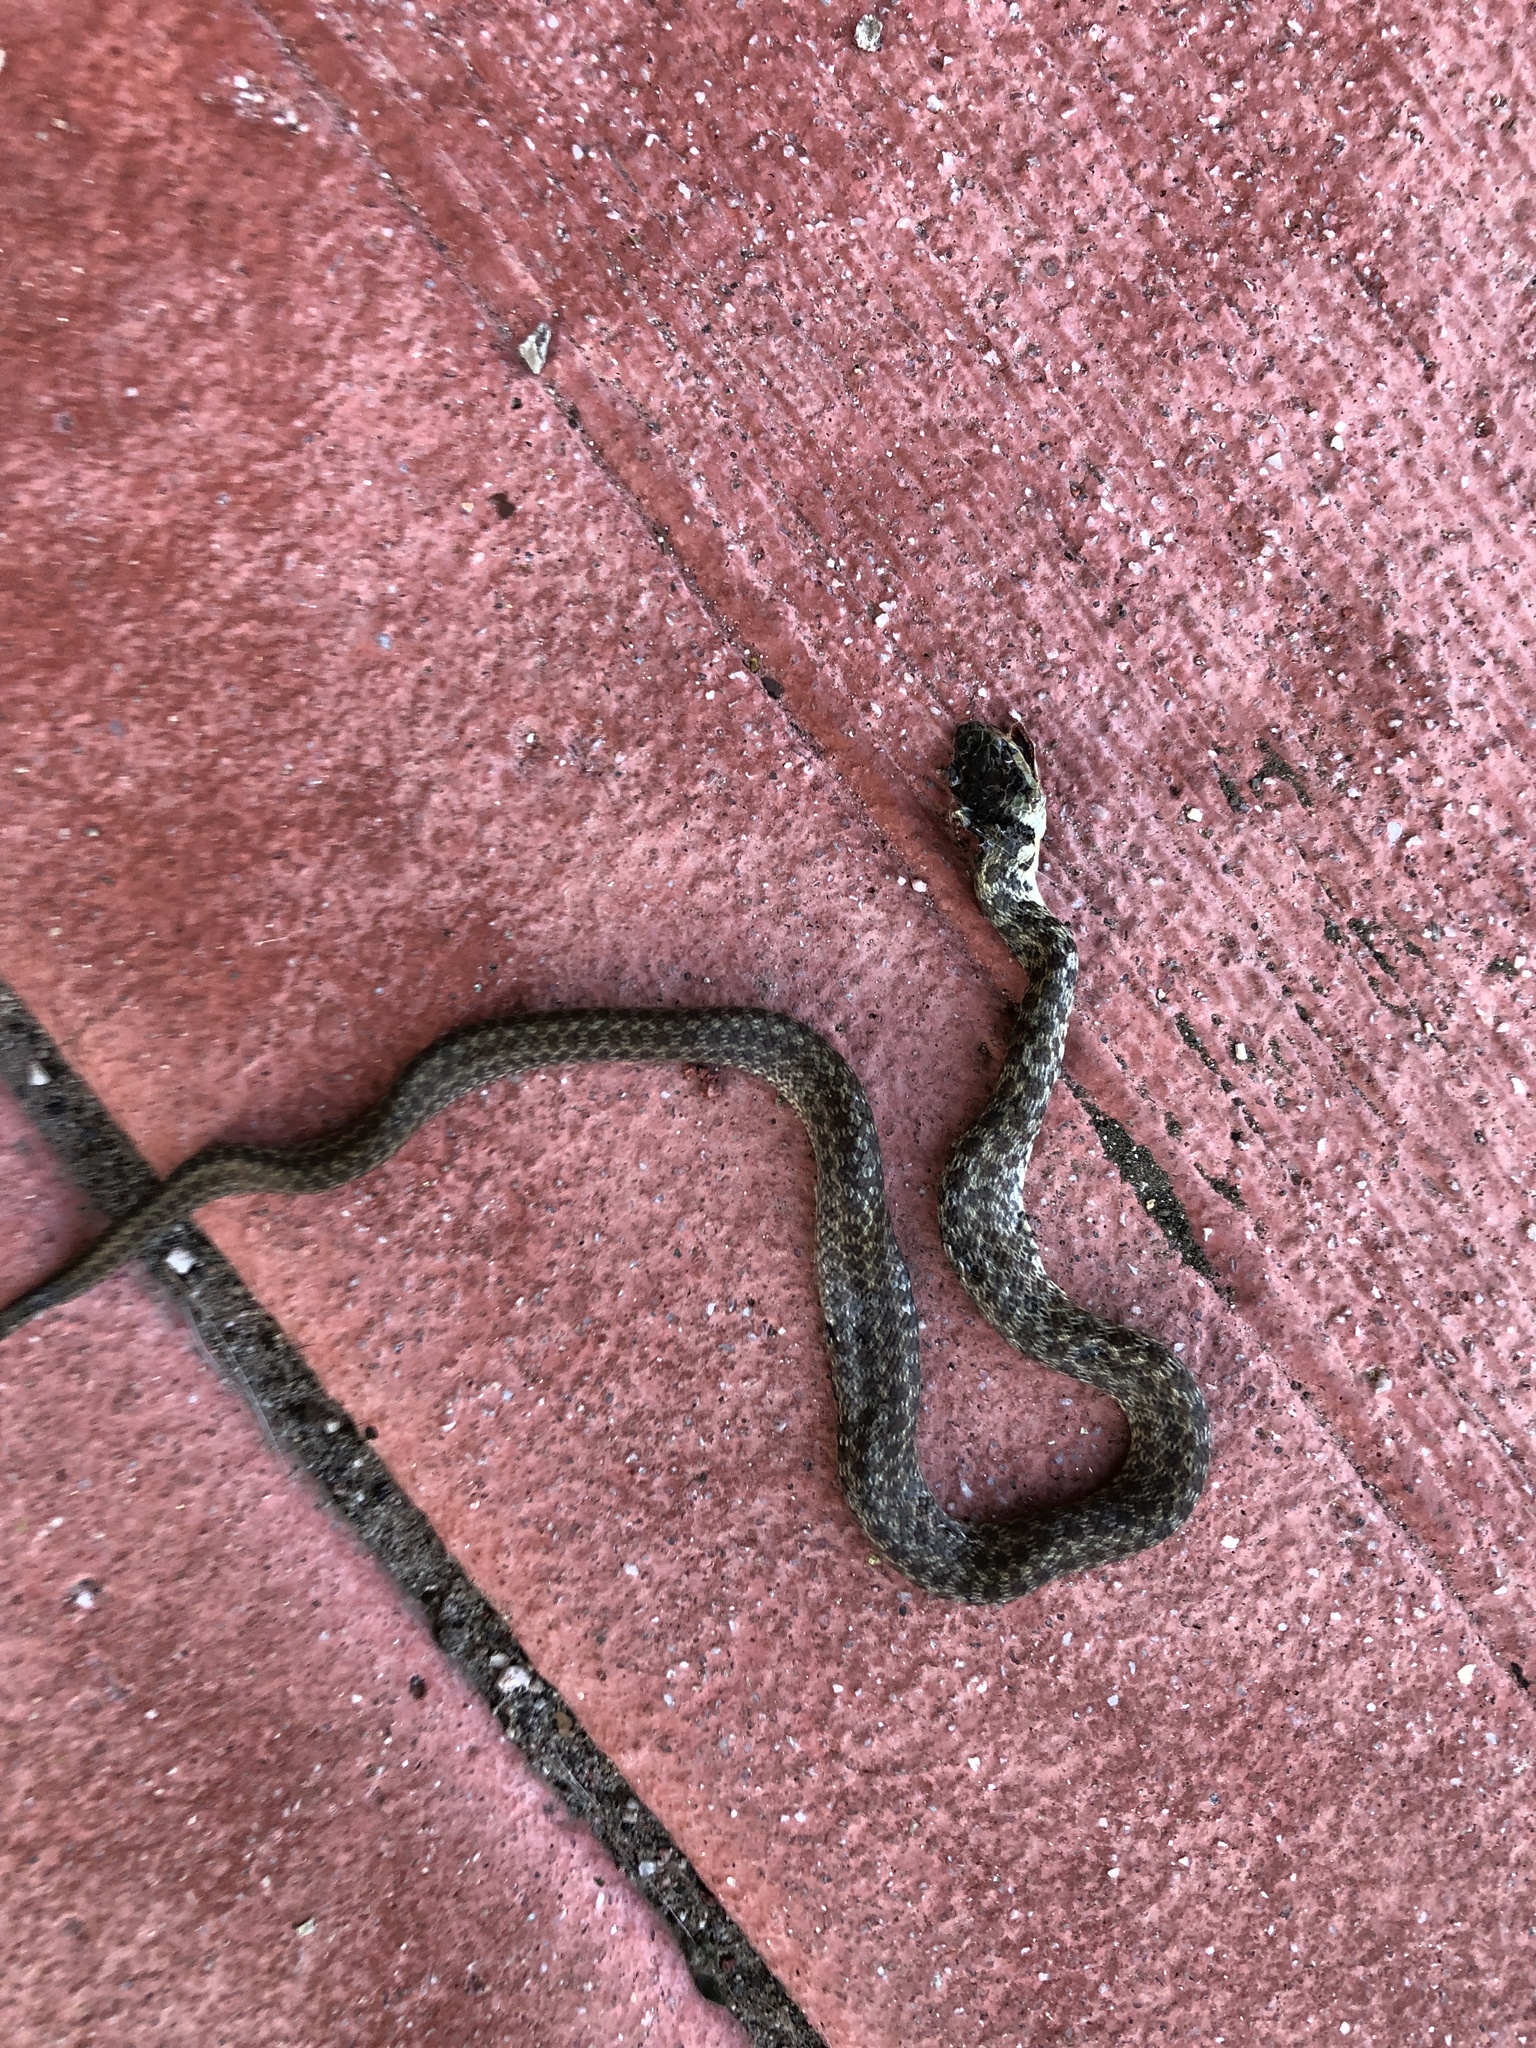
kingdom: Animalia
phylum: Chordata
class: Squamata
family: Colubridae
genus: Zamenis
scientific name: Zamenis longissimus
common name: Aesculapean snake
